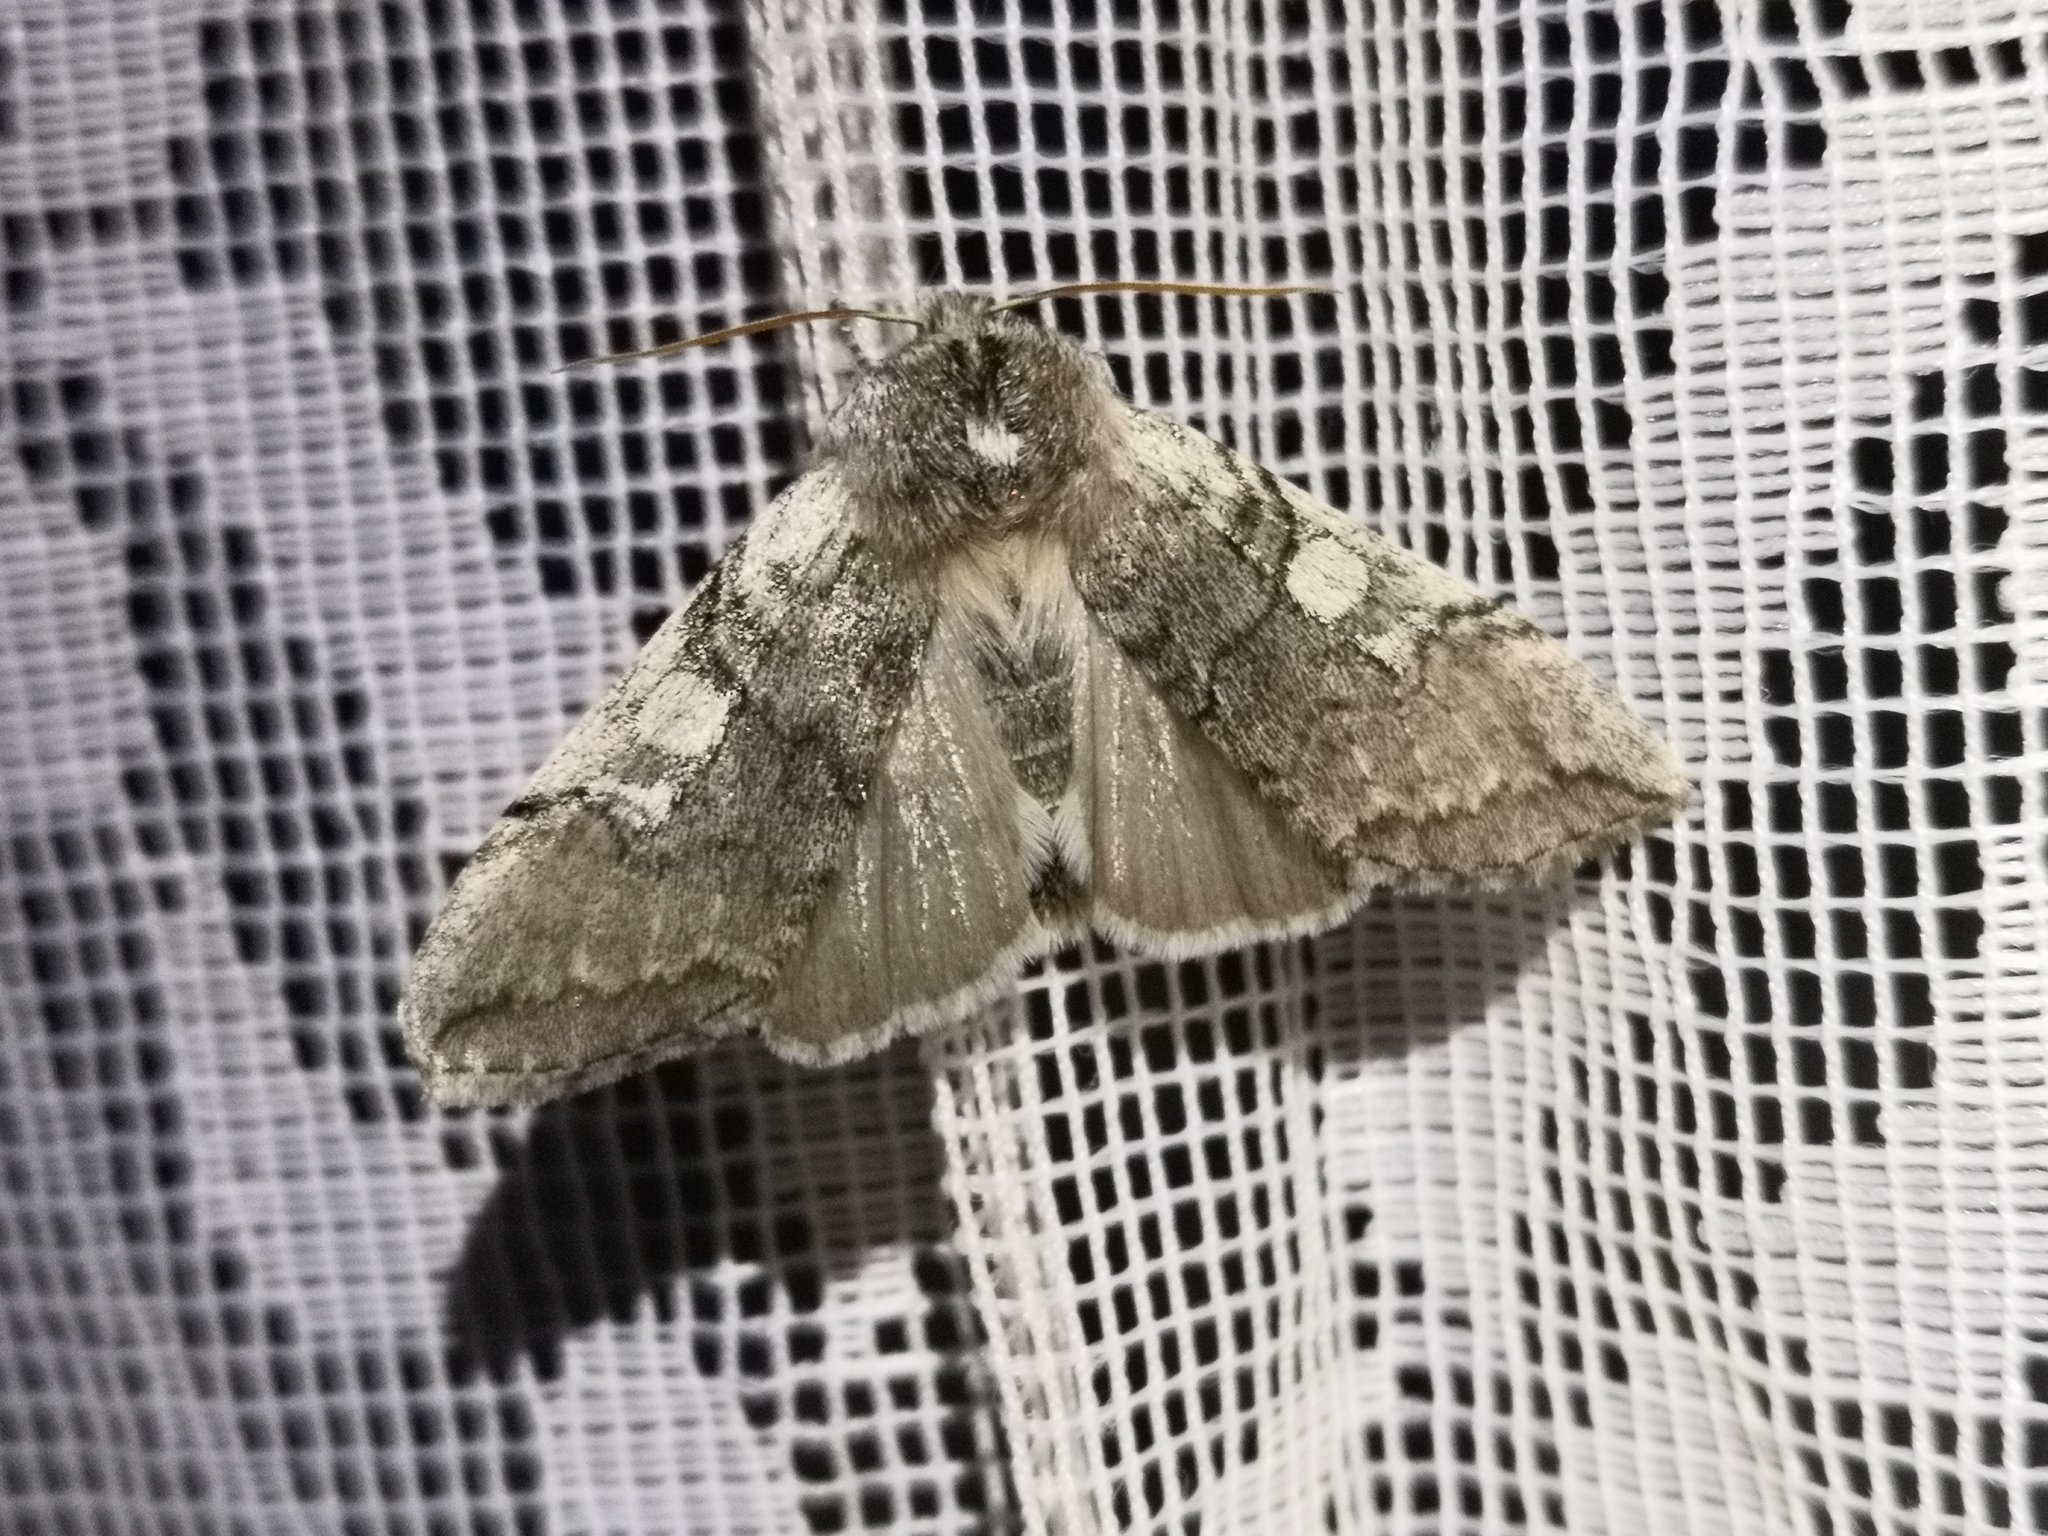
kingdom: Animalia
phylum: Arthropoda
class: Insecta
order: Lepidoptera
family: Drepanidae
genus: Achlya
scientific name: Achlya flavicornis
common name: Yellow horned
